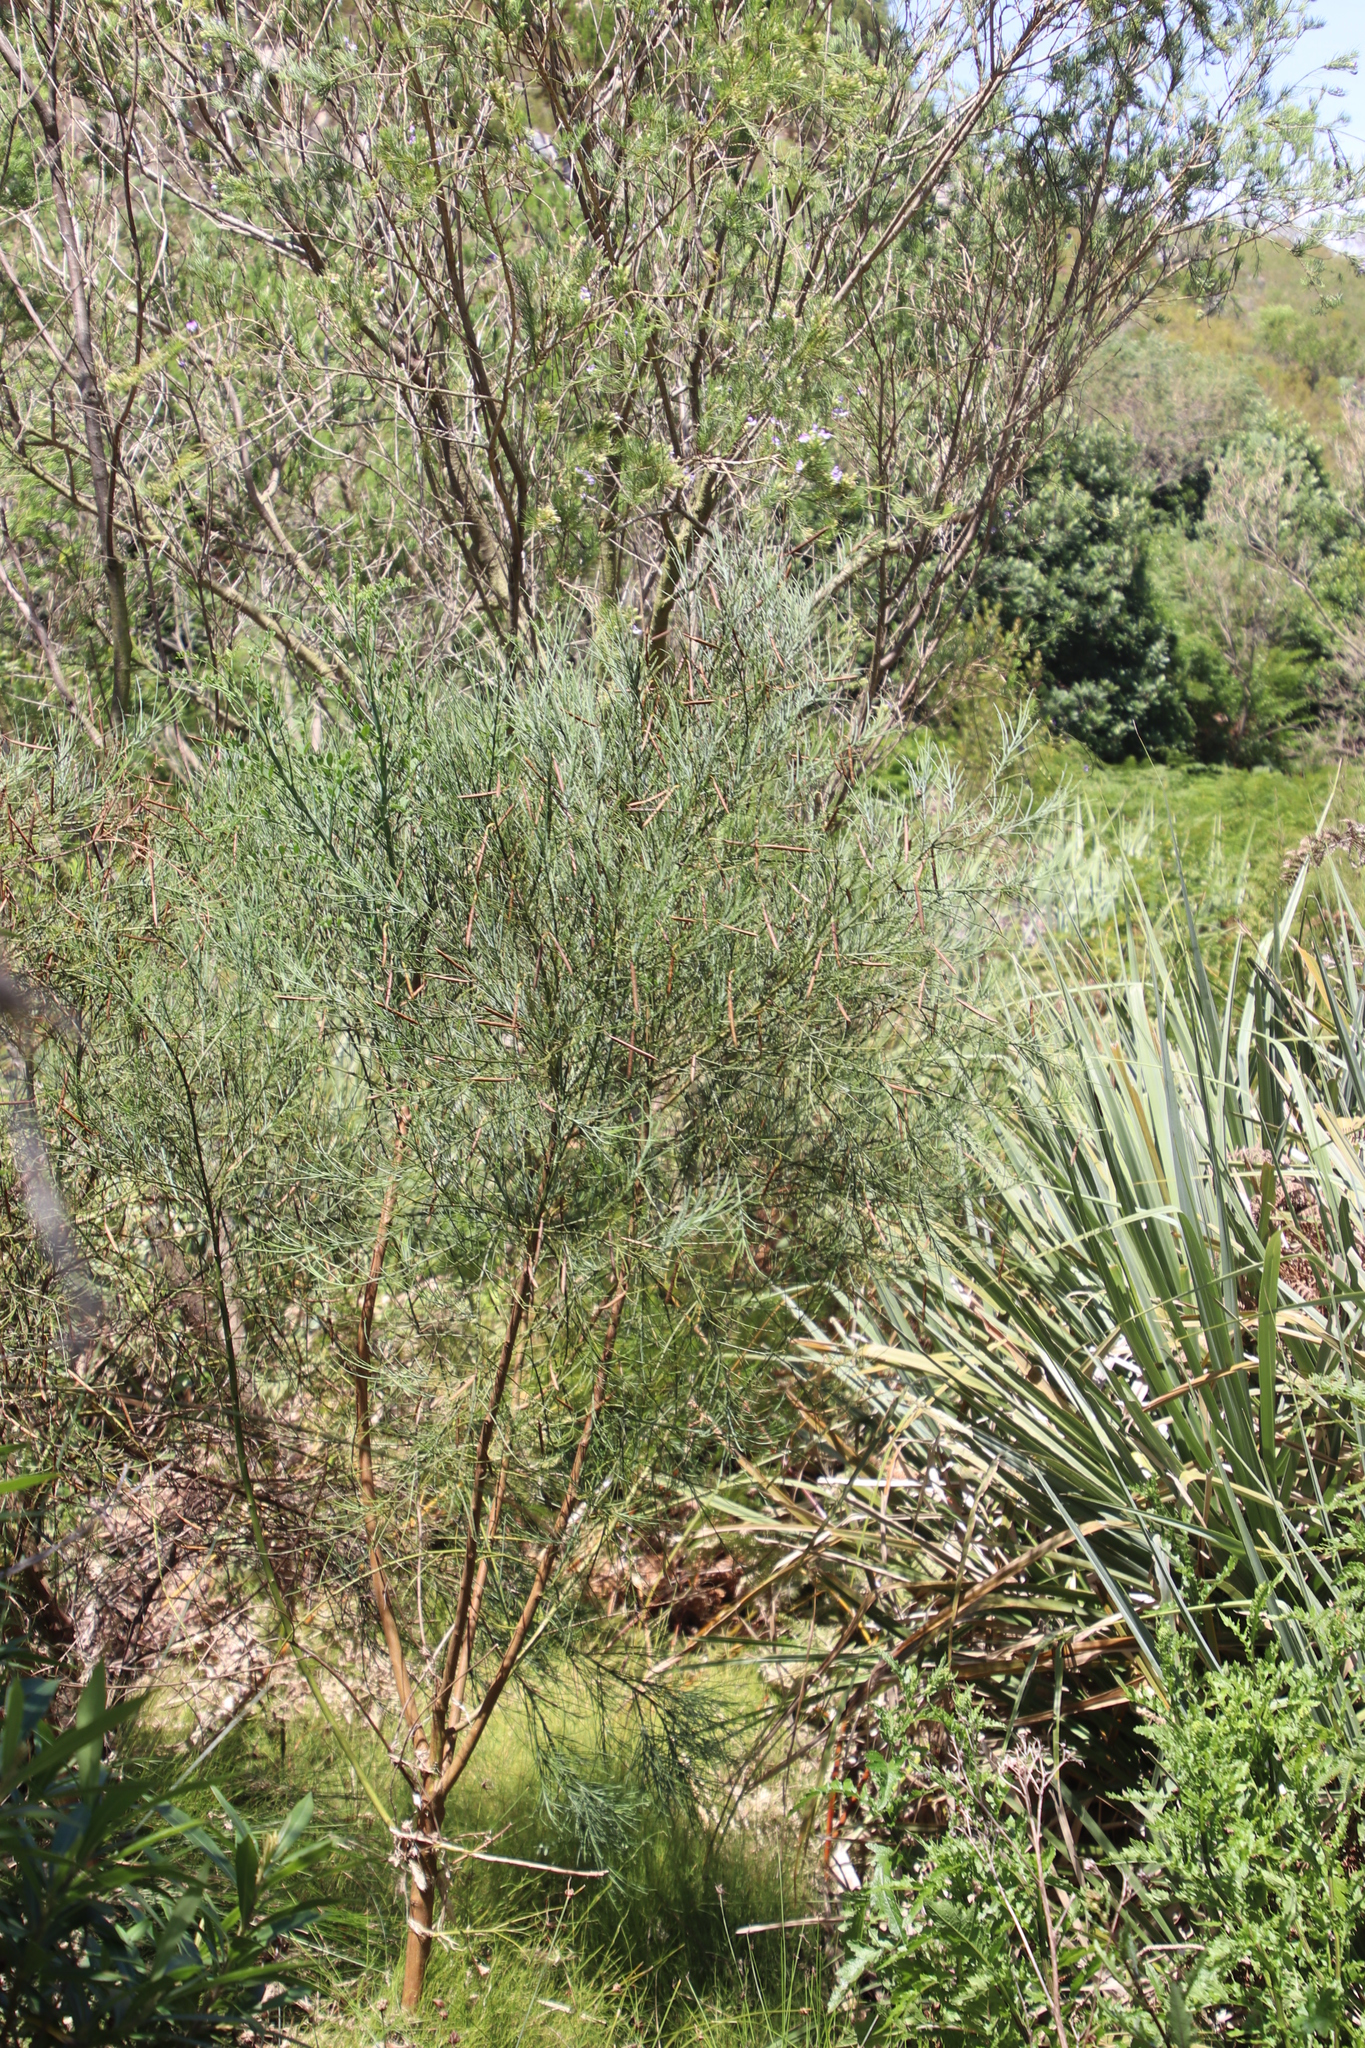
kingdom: Plantae
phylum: Tracheophyta
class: Magnoliopsida
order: Fabales
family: Fabaceae
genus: Indigofera
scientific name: Indigofera filifolia
